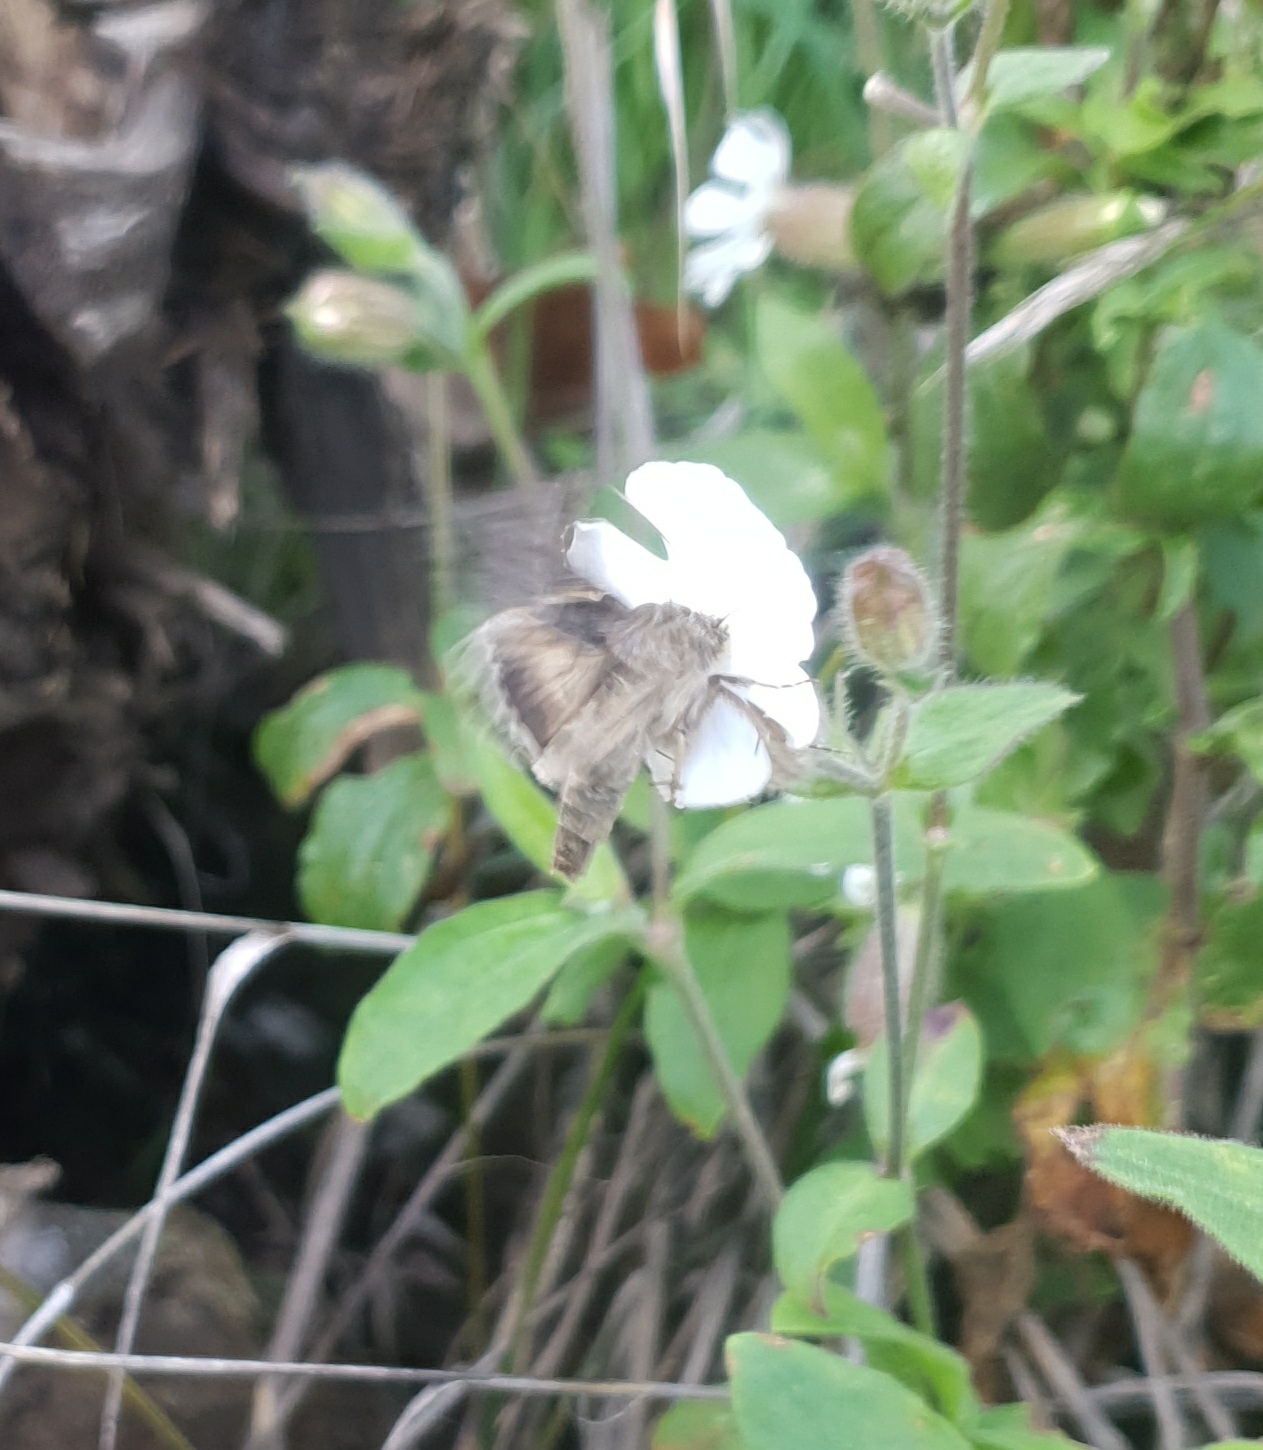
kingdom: Animalia
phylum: Arthropoda
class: Insecta
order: Lepidoptera
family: Noctuidae
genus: Autographa
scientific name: Autographa gamma
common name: Silver y
